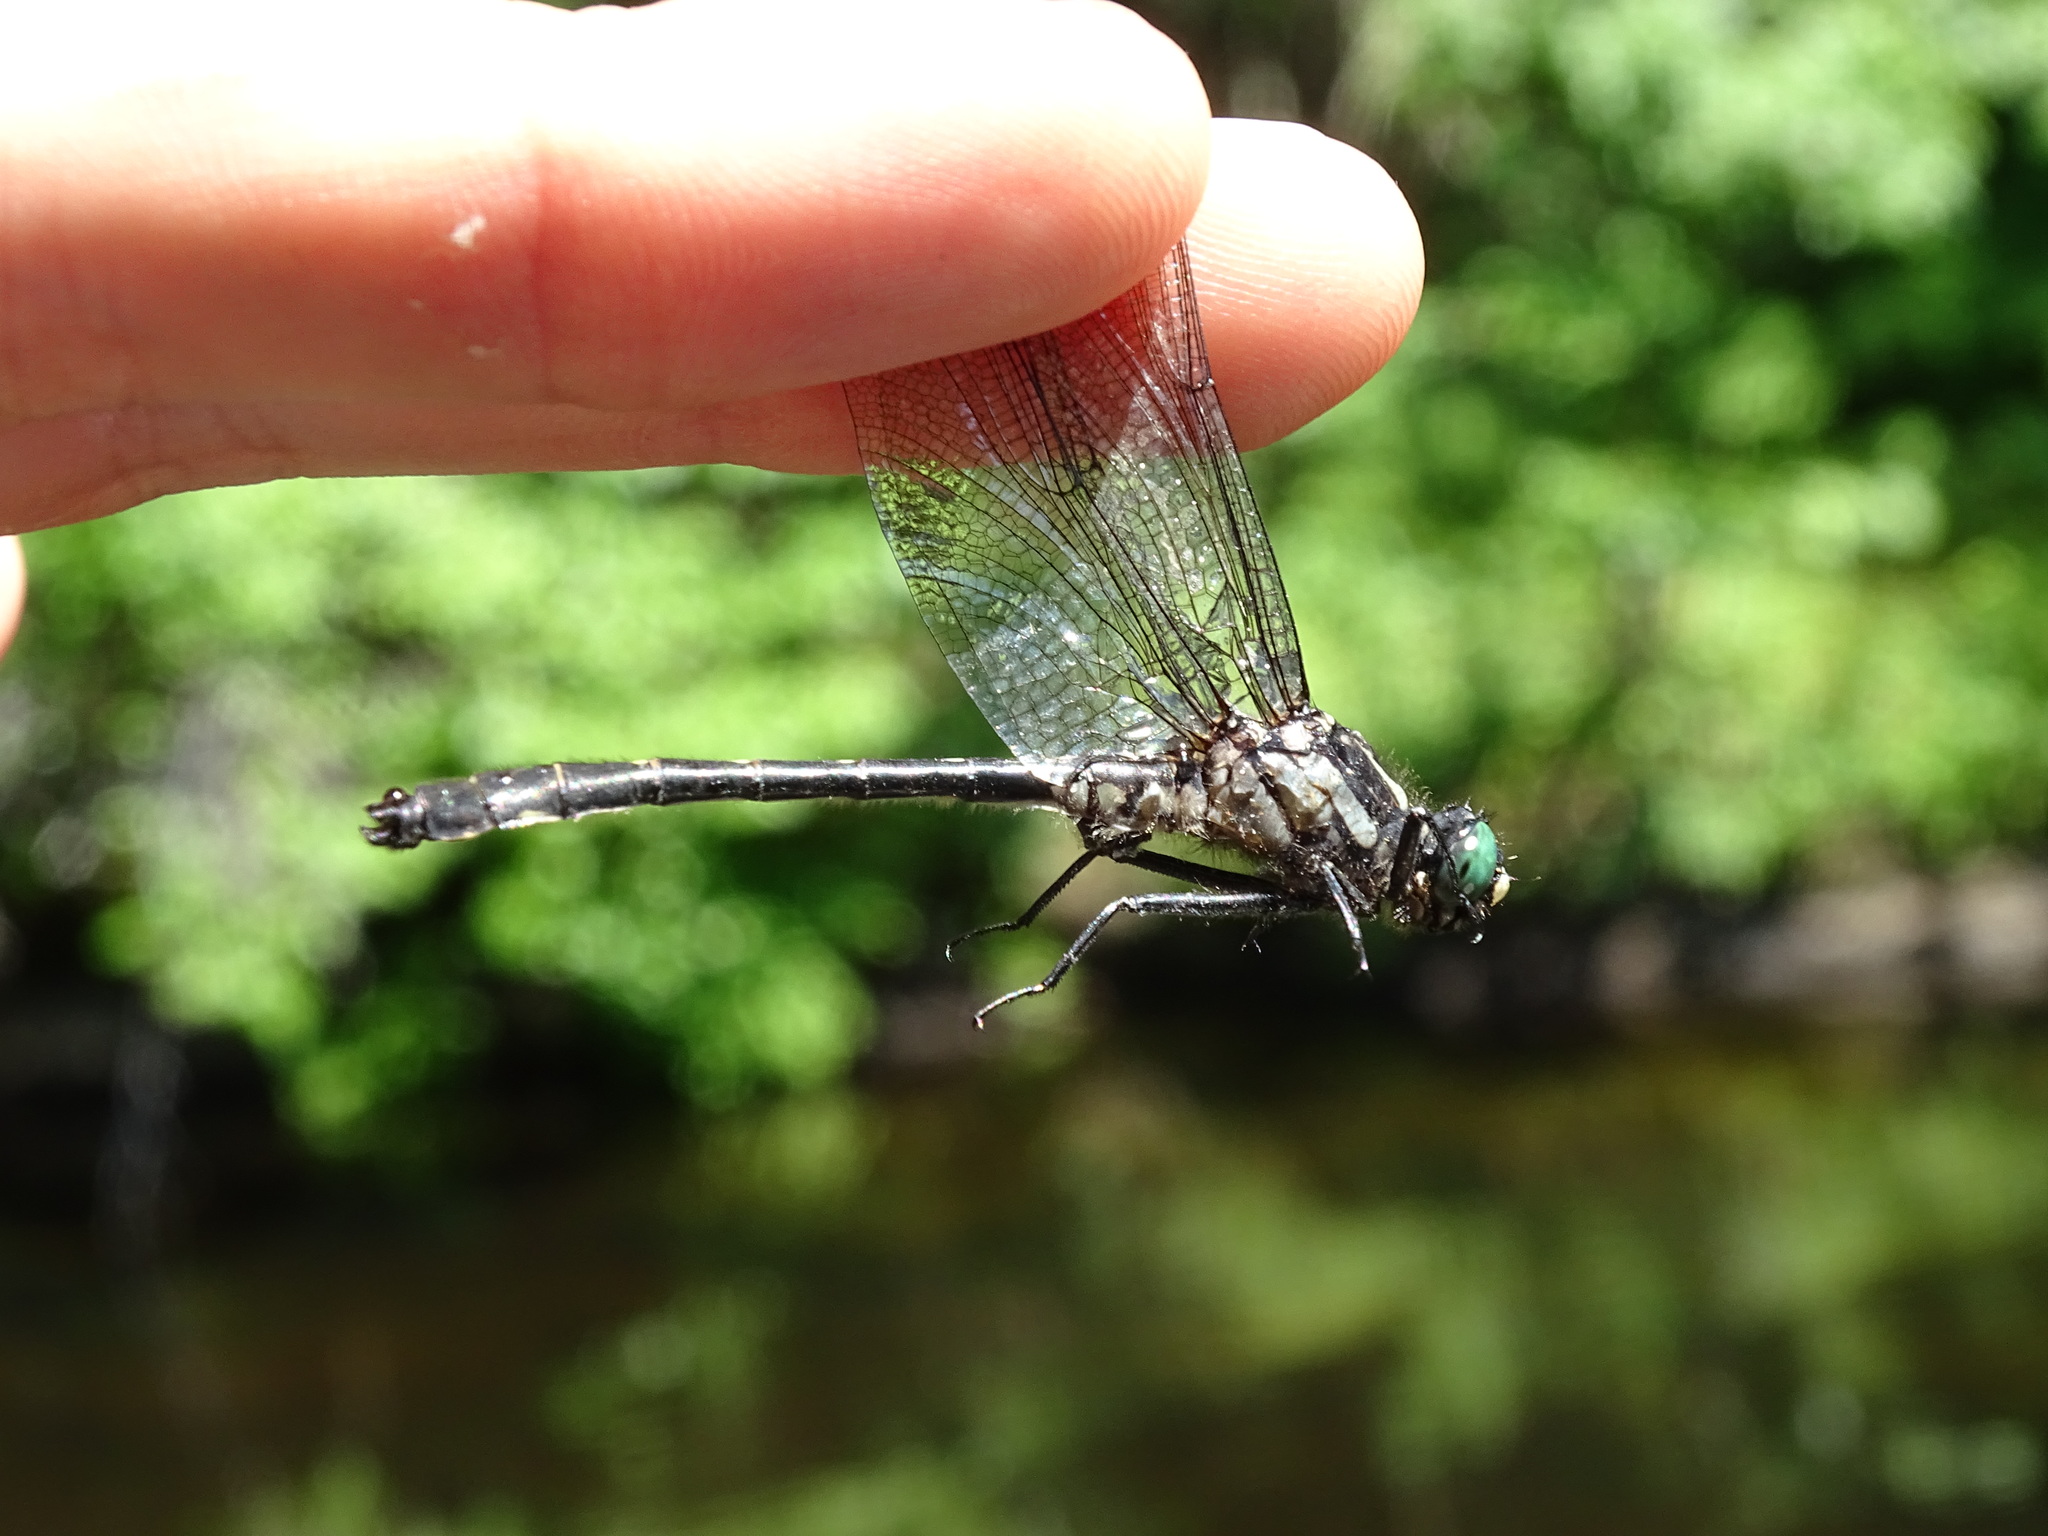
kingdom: Animalia
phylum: Arthropoda
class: Insecta
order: Odonata
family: Gomphidae
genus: Hylogomphus
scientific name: Hylogomphus adelphus
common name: Mustached clubtail
